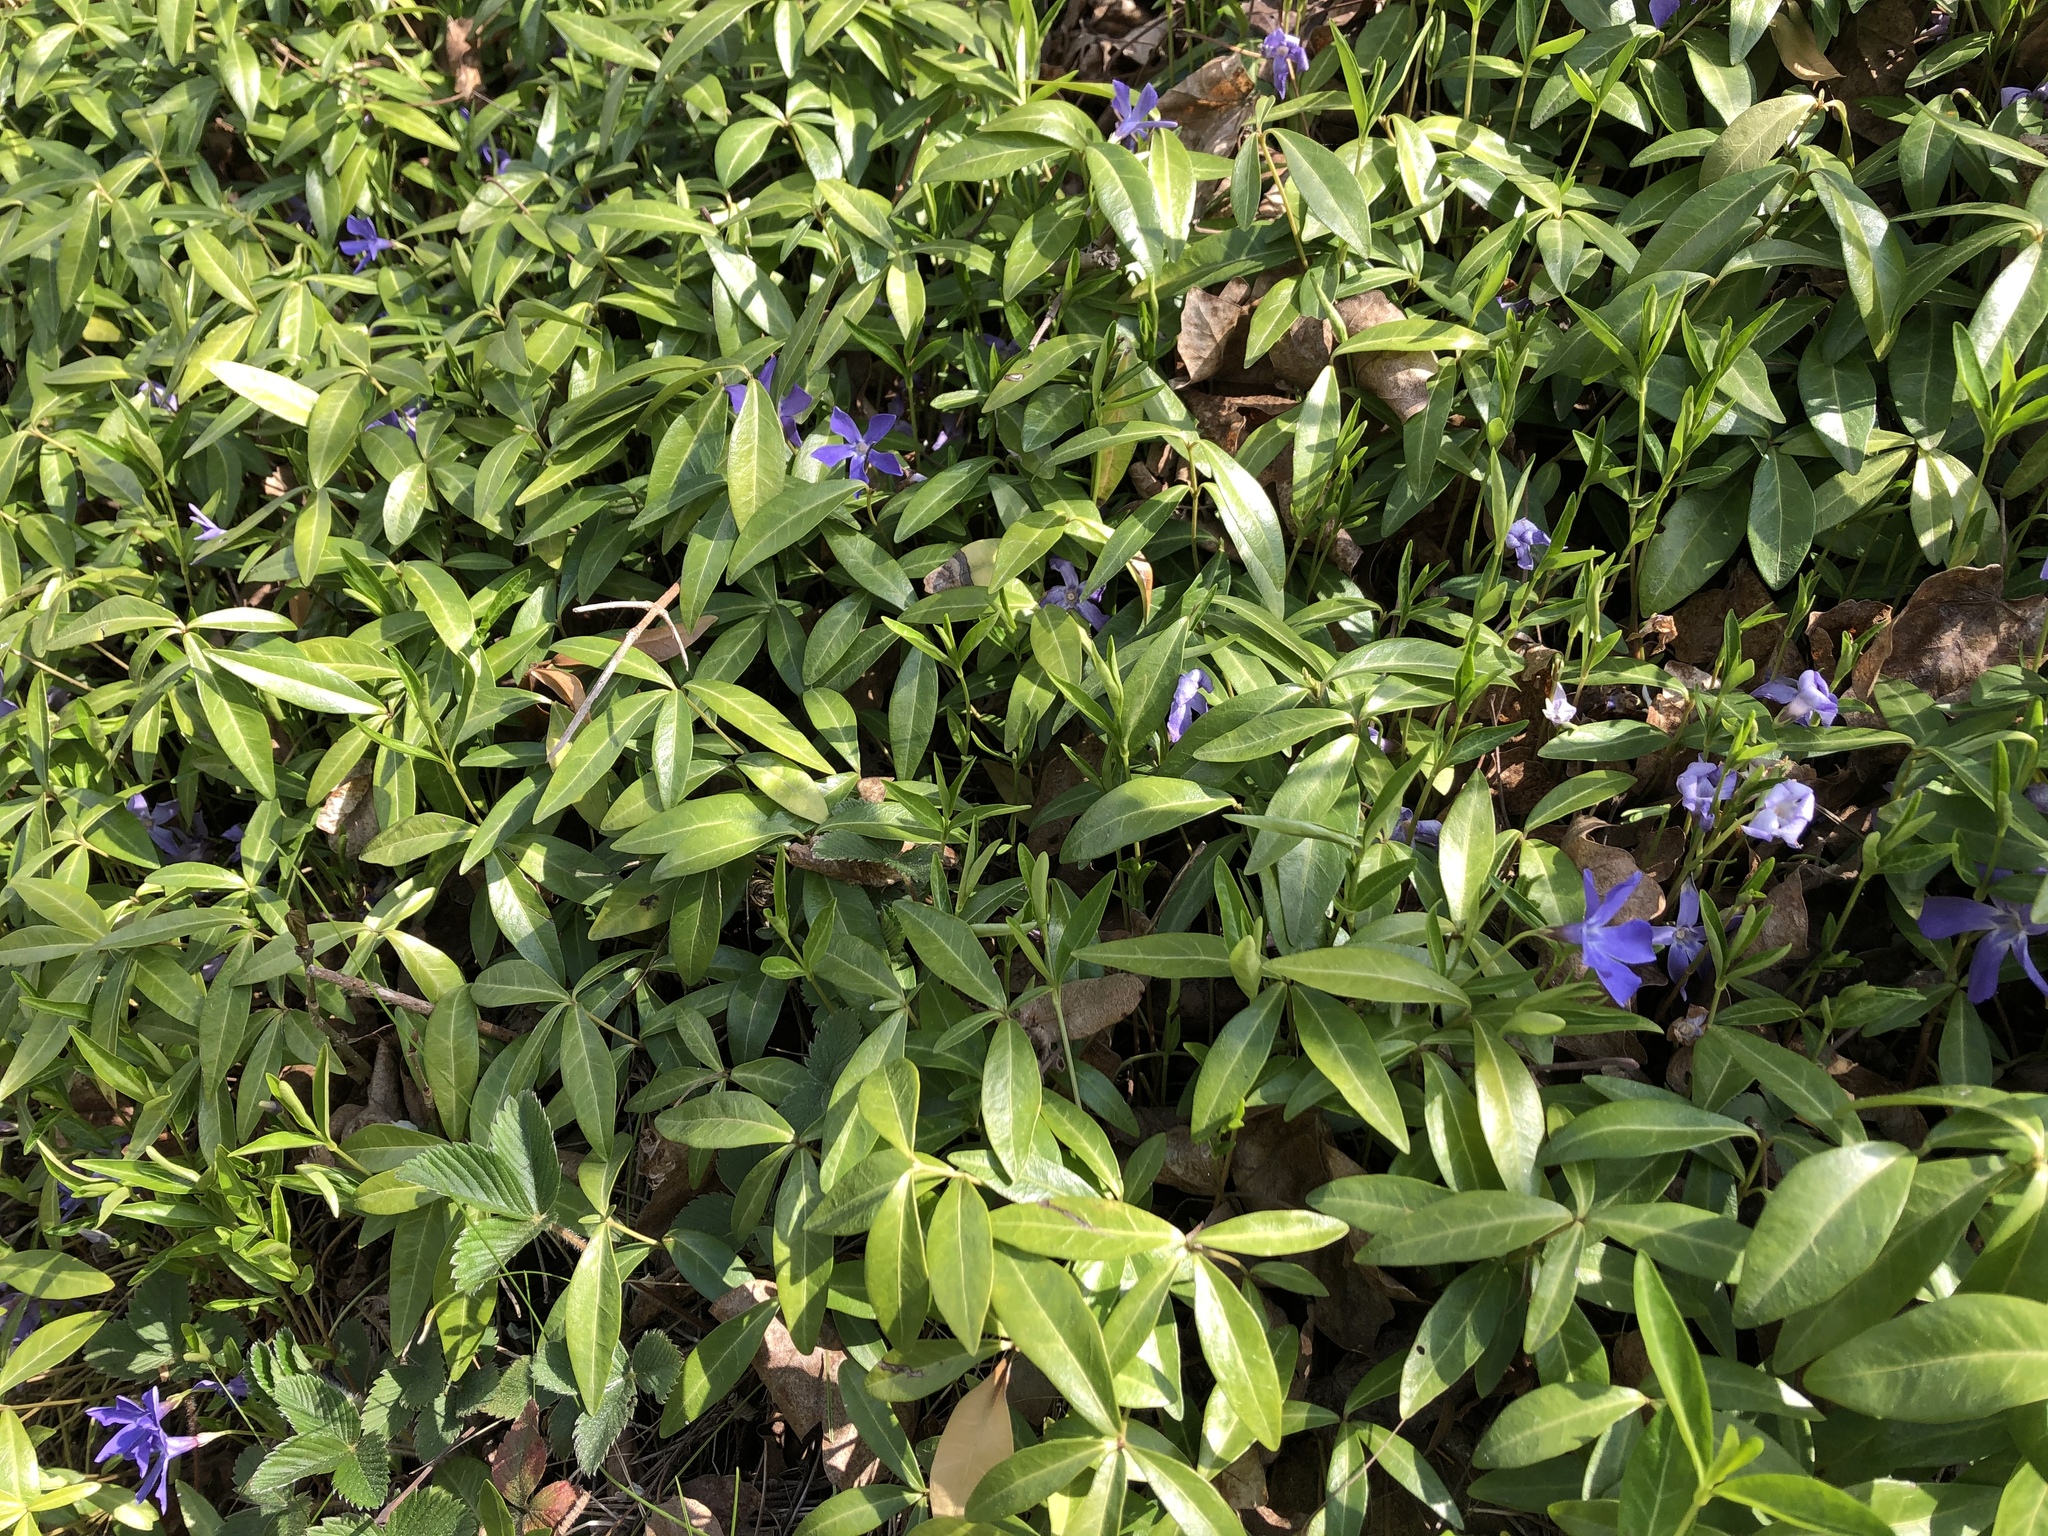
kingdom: Plantae
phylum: Tracheophyta
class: Magnoliopsida
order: Gentianales
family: Apocynaceae
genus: Vinca
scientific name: Vinca minor
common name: Lesser periwinkle
